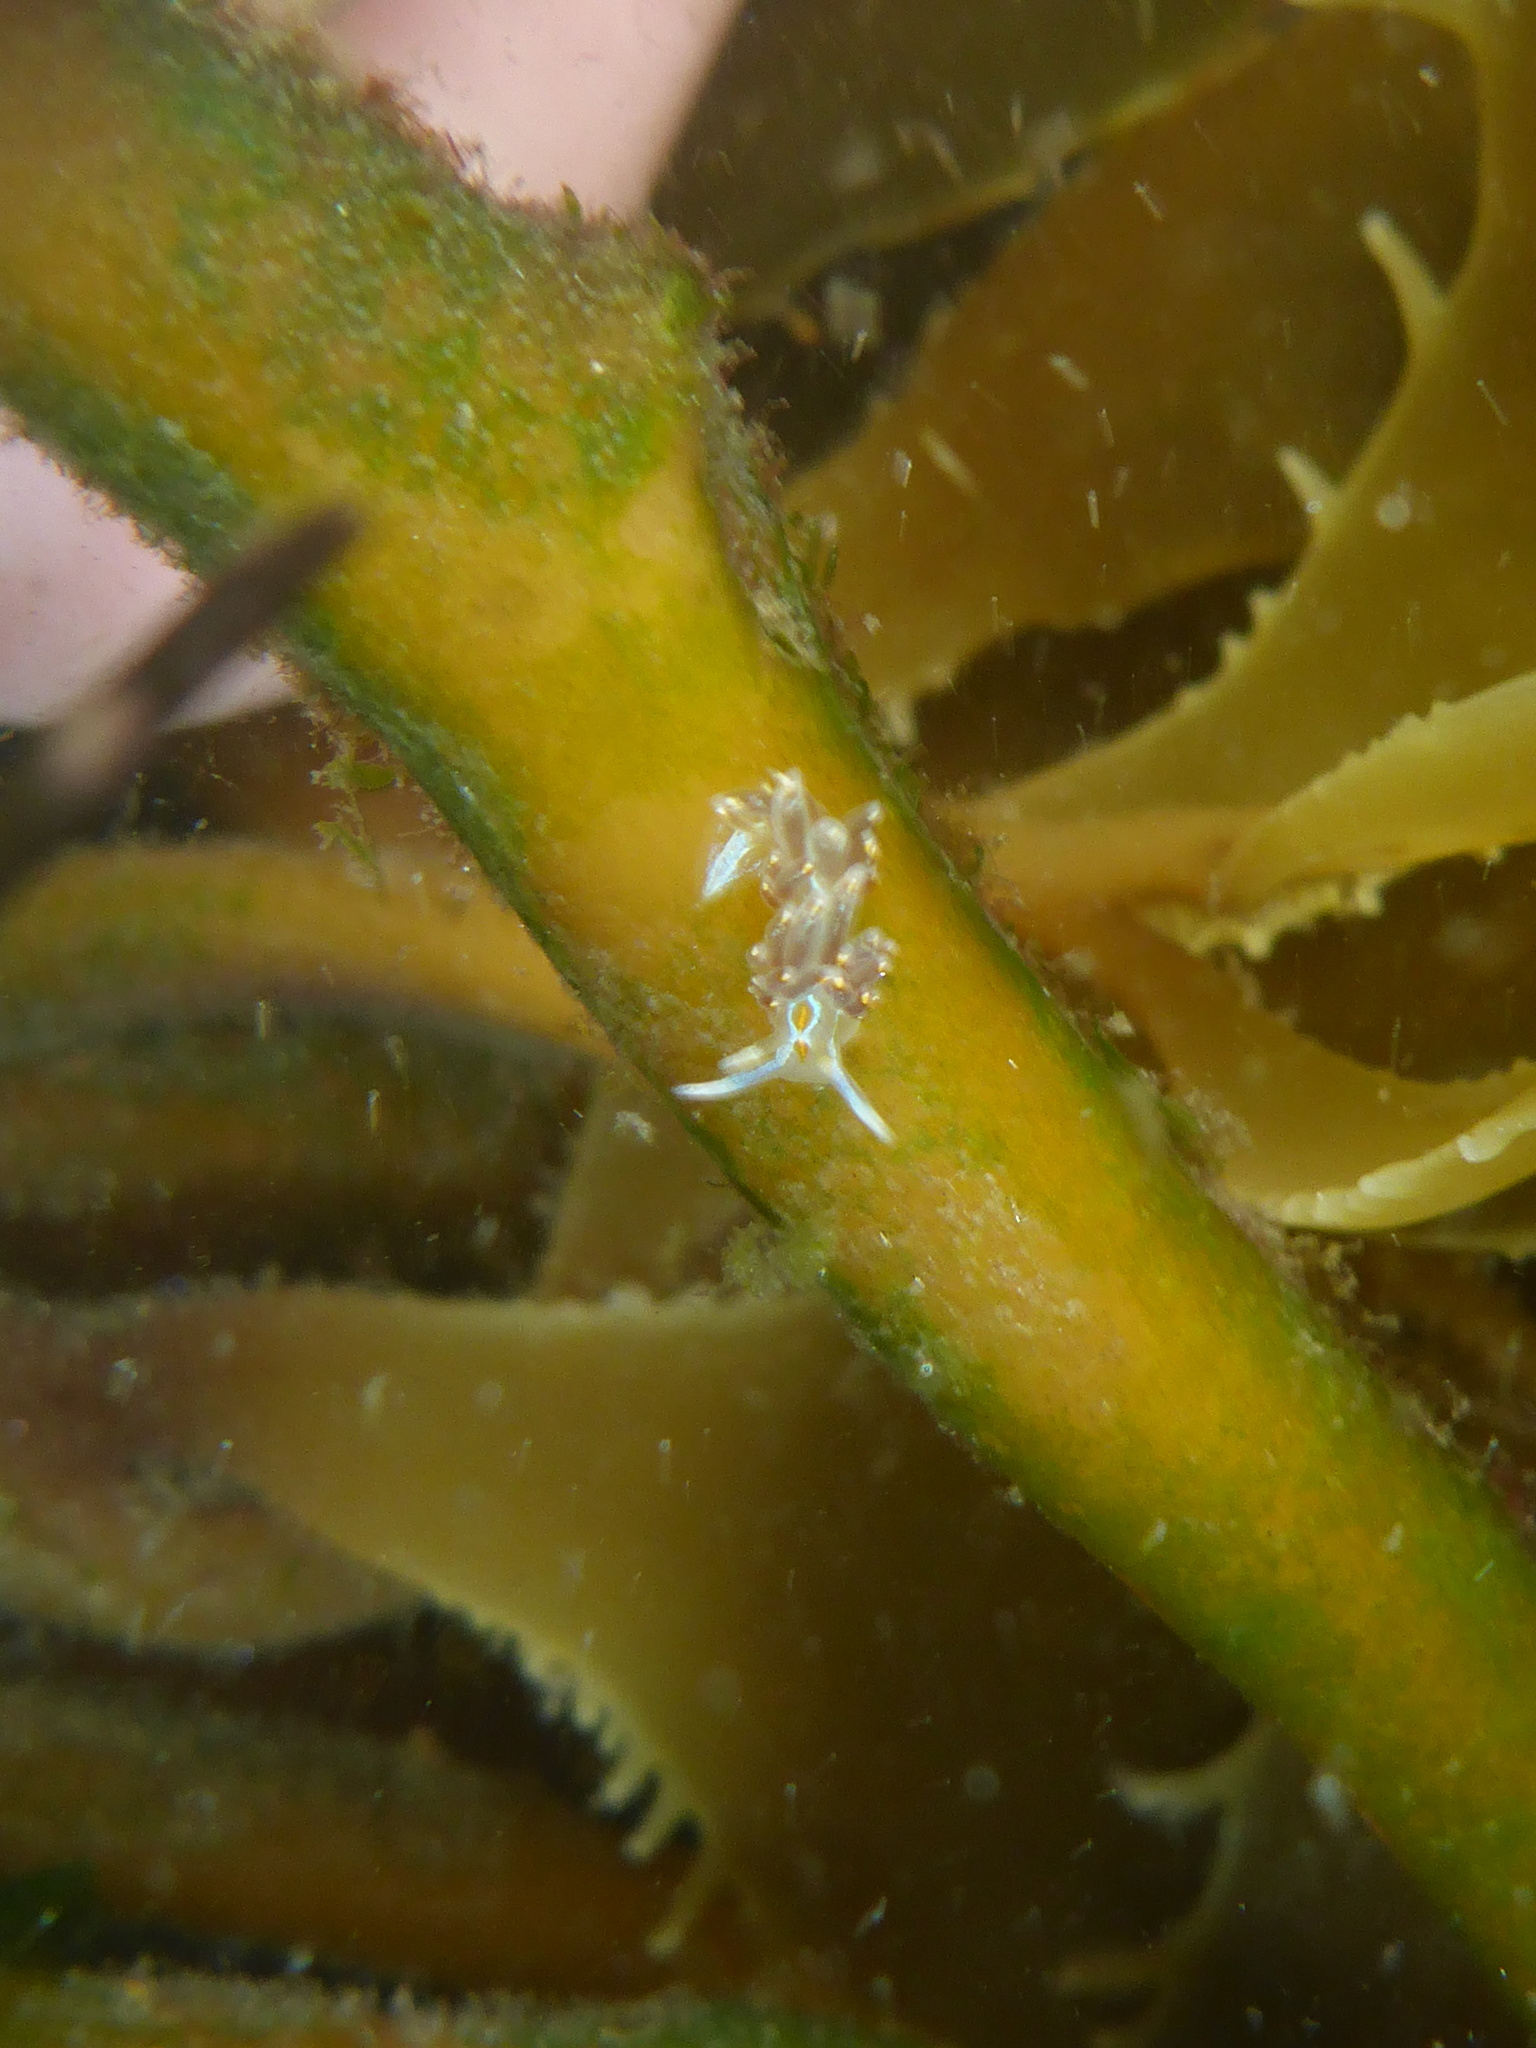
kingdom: Animalia
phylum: Mollusca
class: Gastropoda
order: Nudibranchia
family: Myrrhinidae
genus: Hermissenda
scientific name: Hermissenda opalescens
